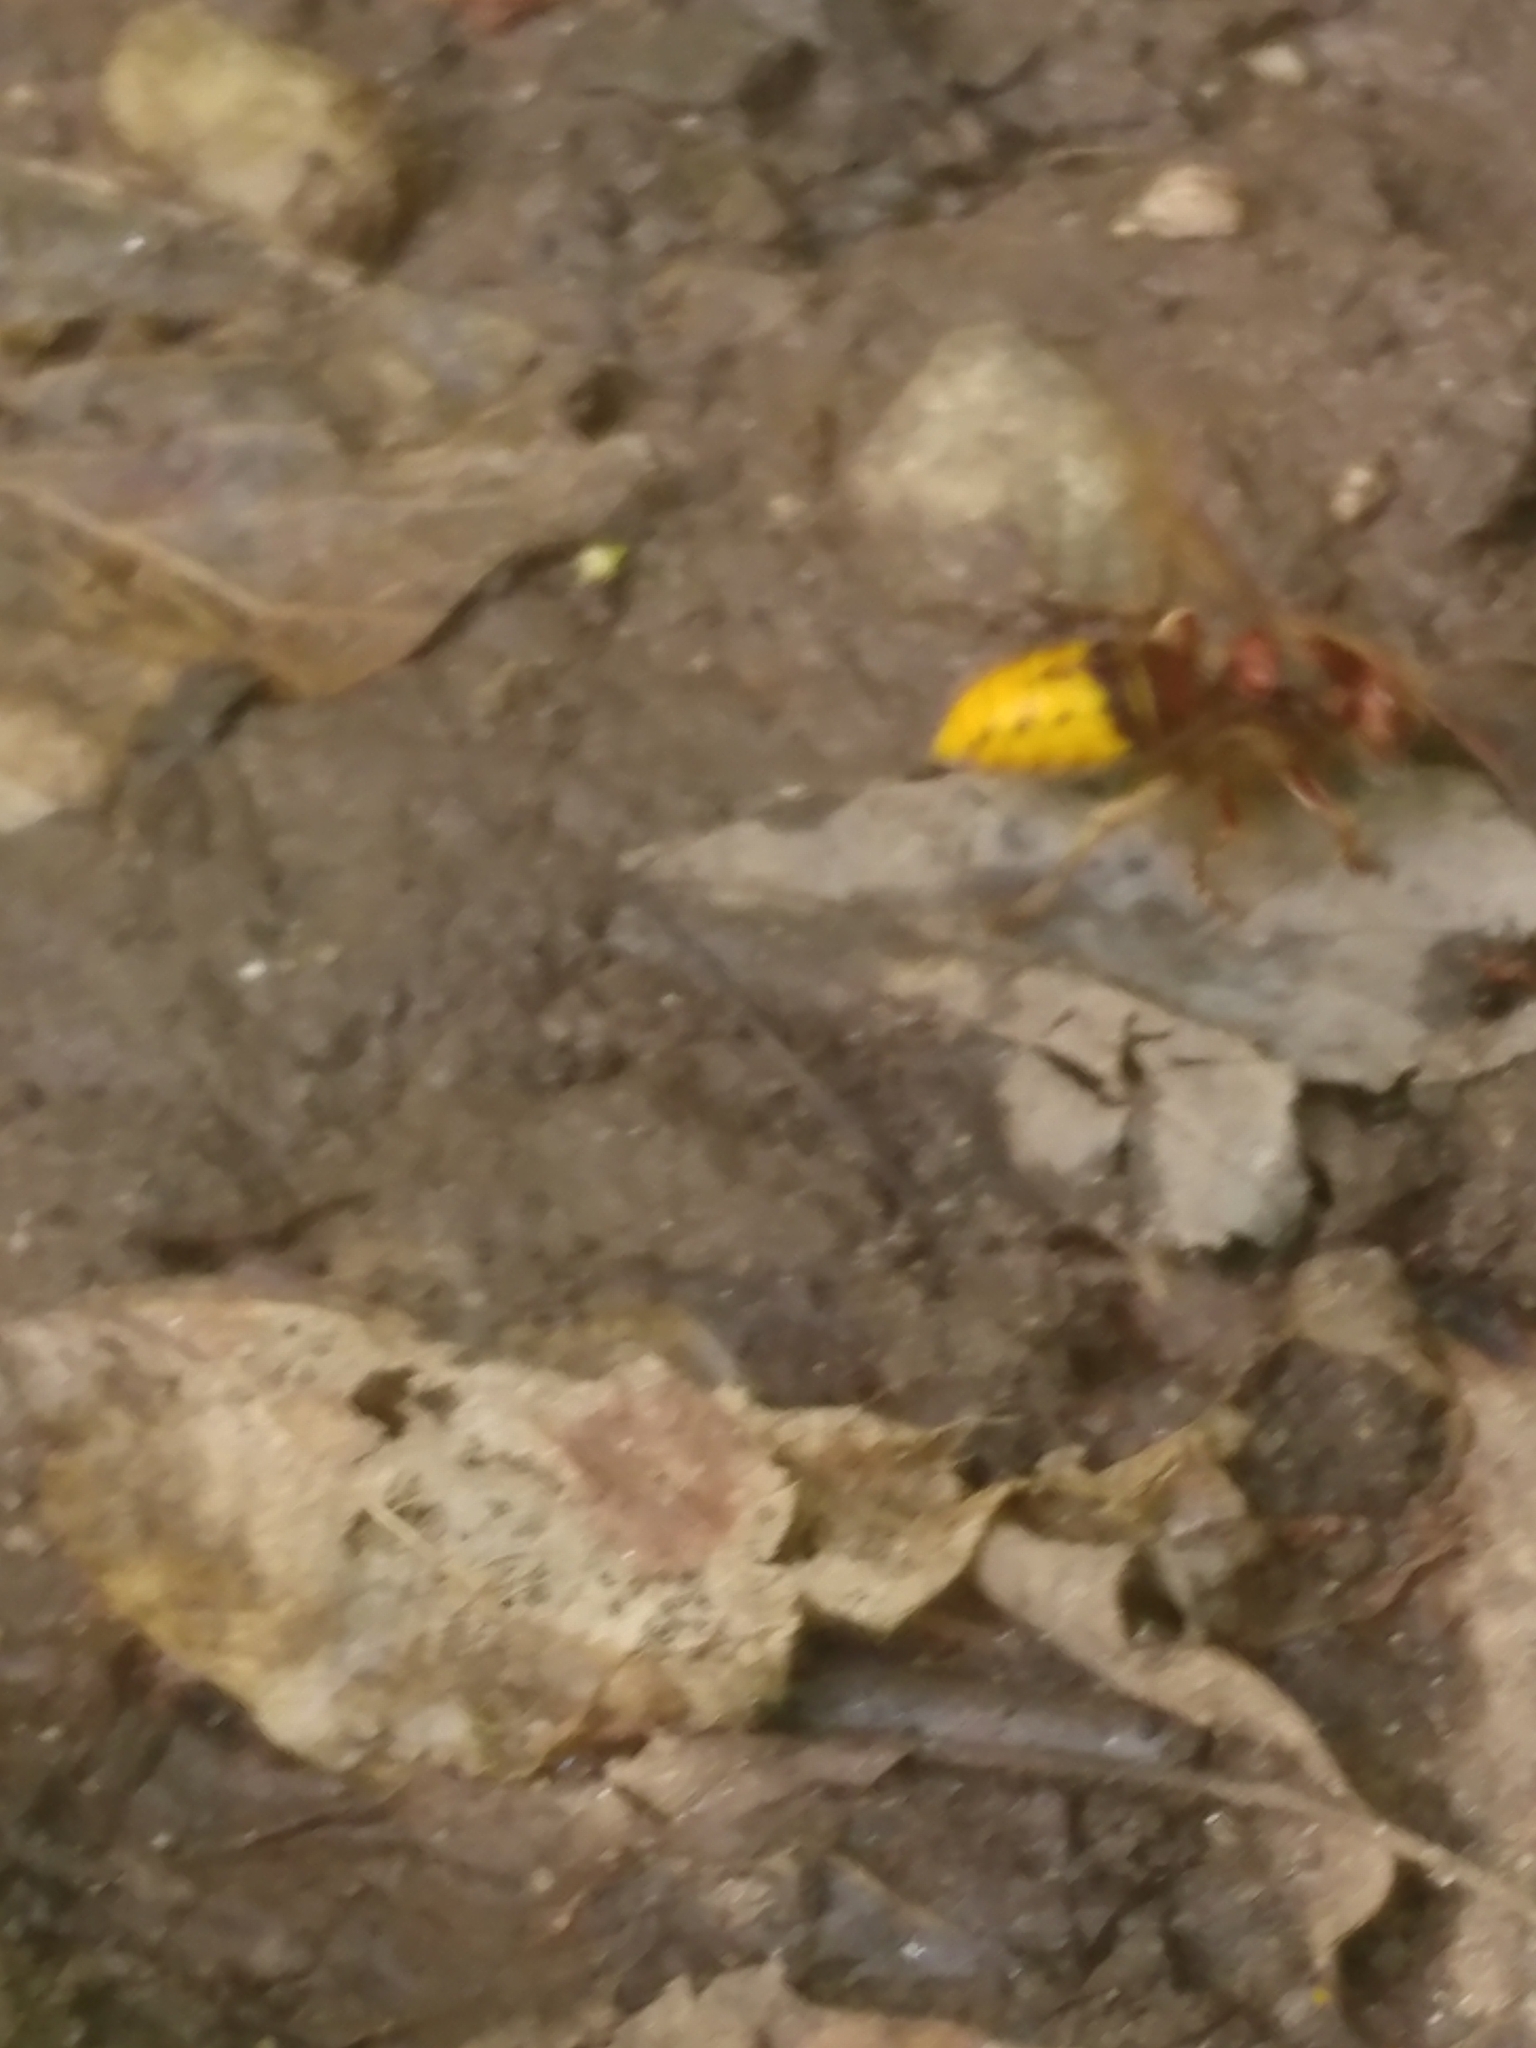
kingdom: Animalia
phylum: Arthropoda
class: Insecta
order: Hymenoptera
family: Vespidae
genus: Vespa
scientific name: Vespa crabro
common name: Hornet
